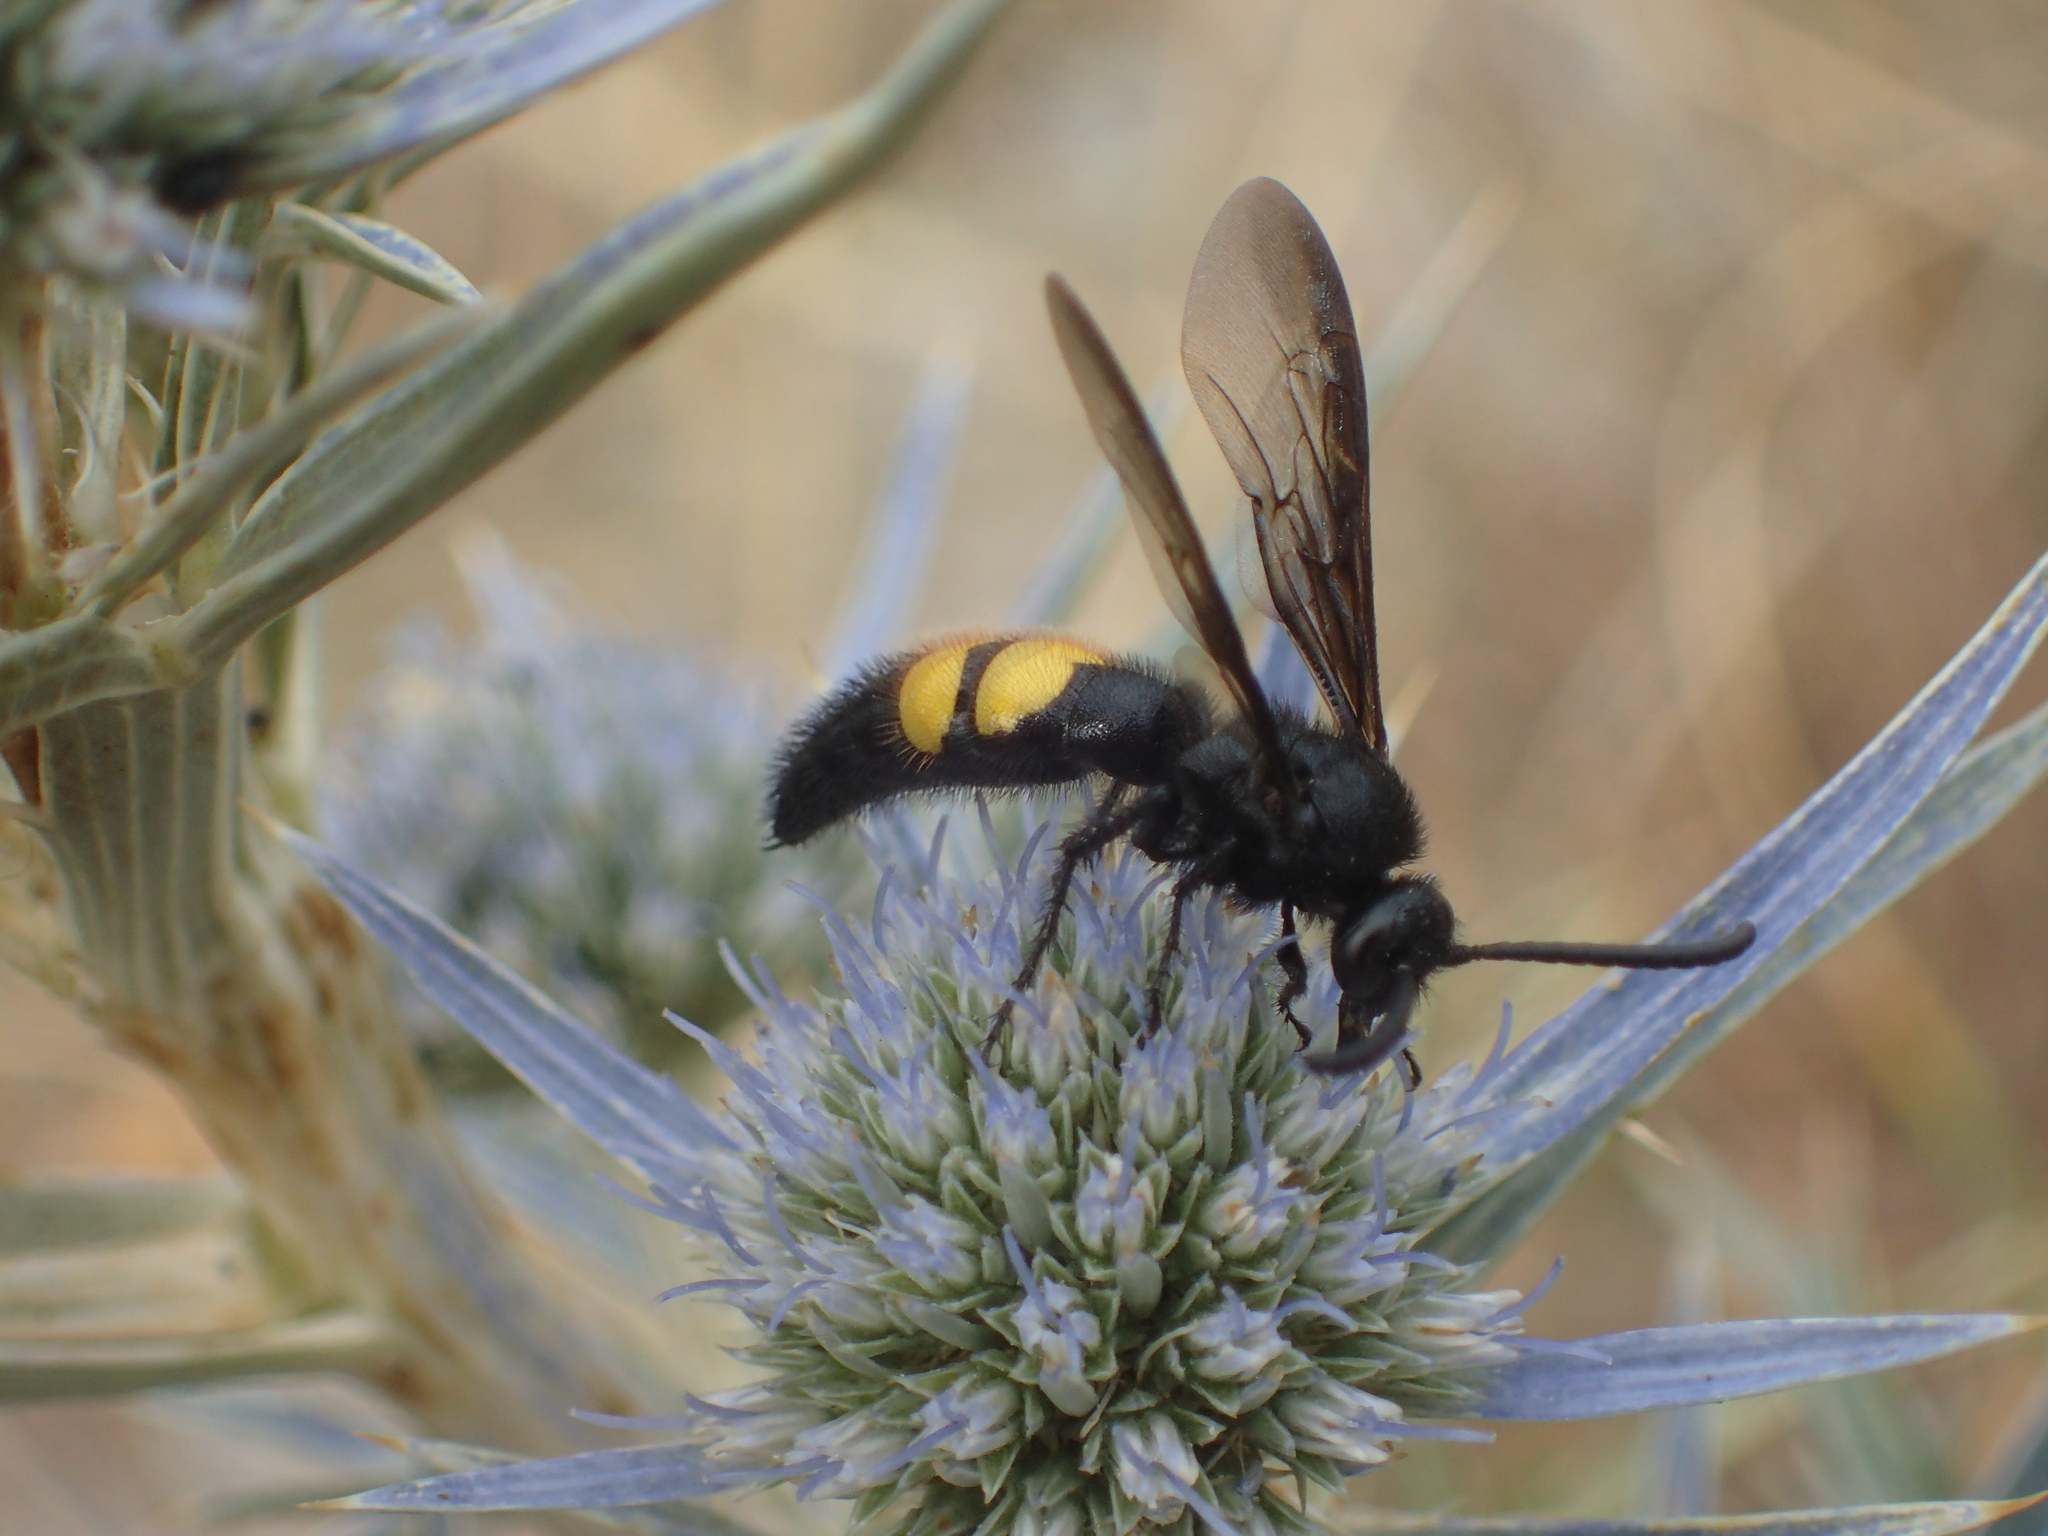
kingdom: Animalia
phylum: Arthropoda
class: Insecta
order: Hymenoptera
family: Scoliidae
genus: Scolia
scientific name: Scolia hirta
